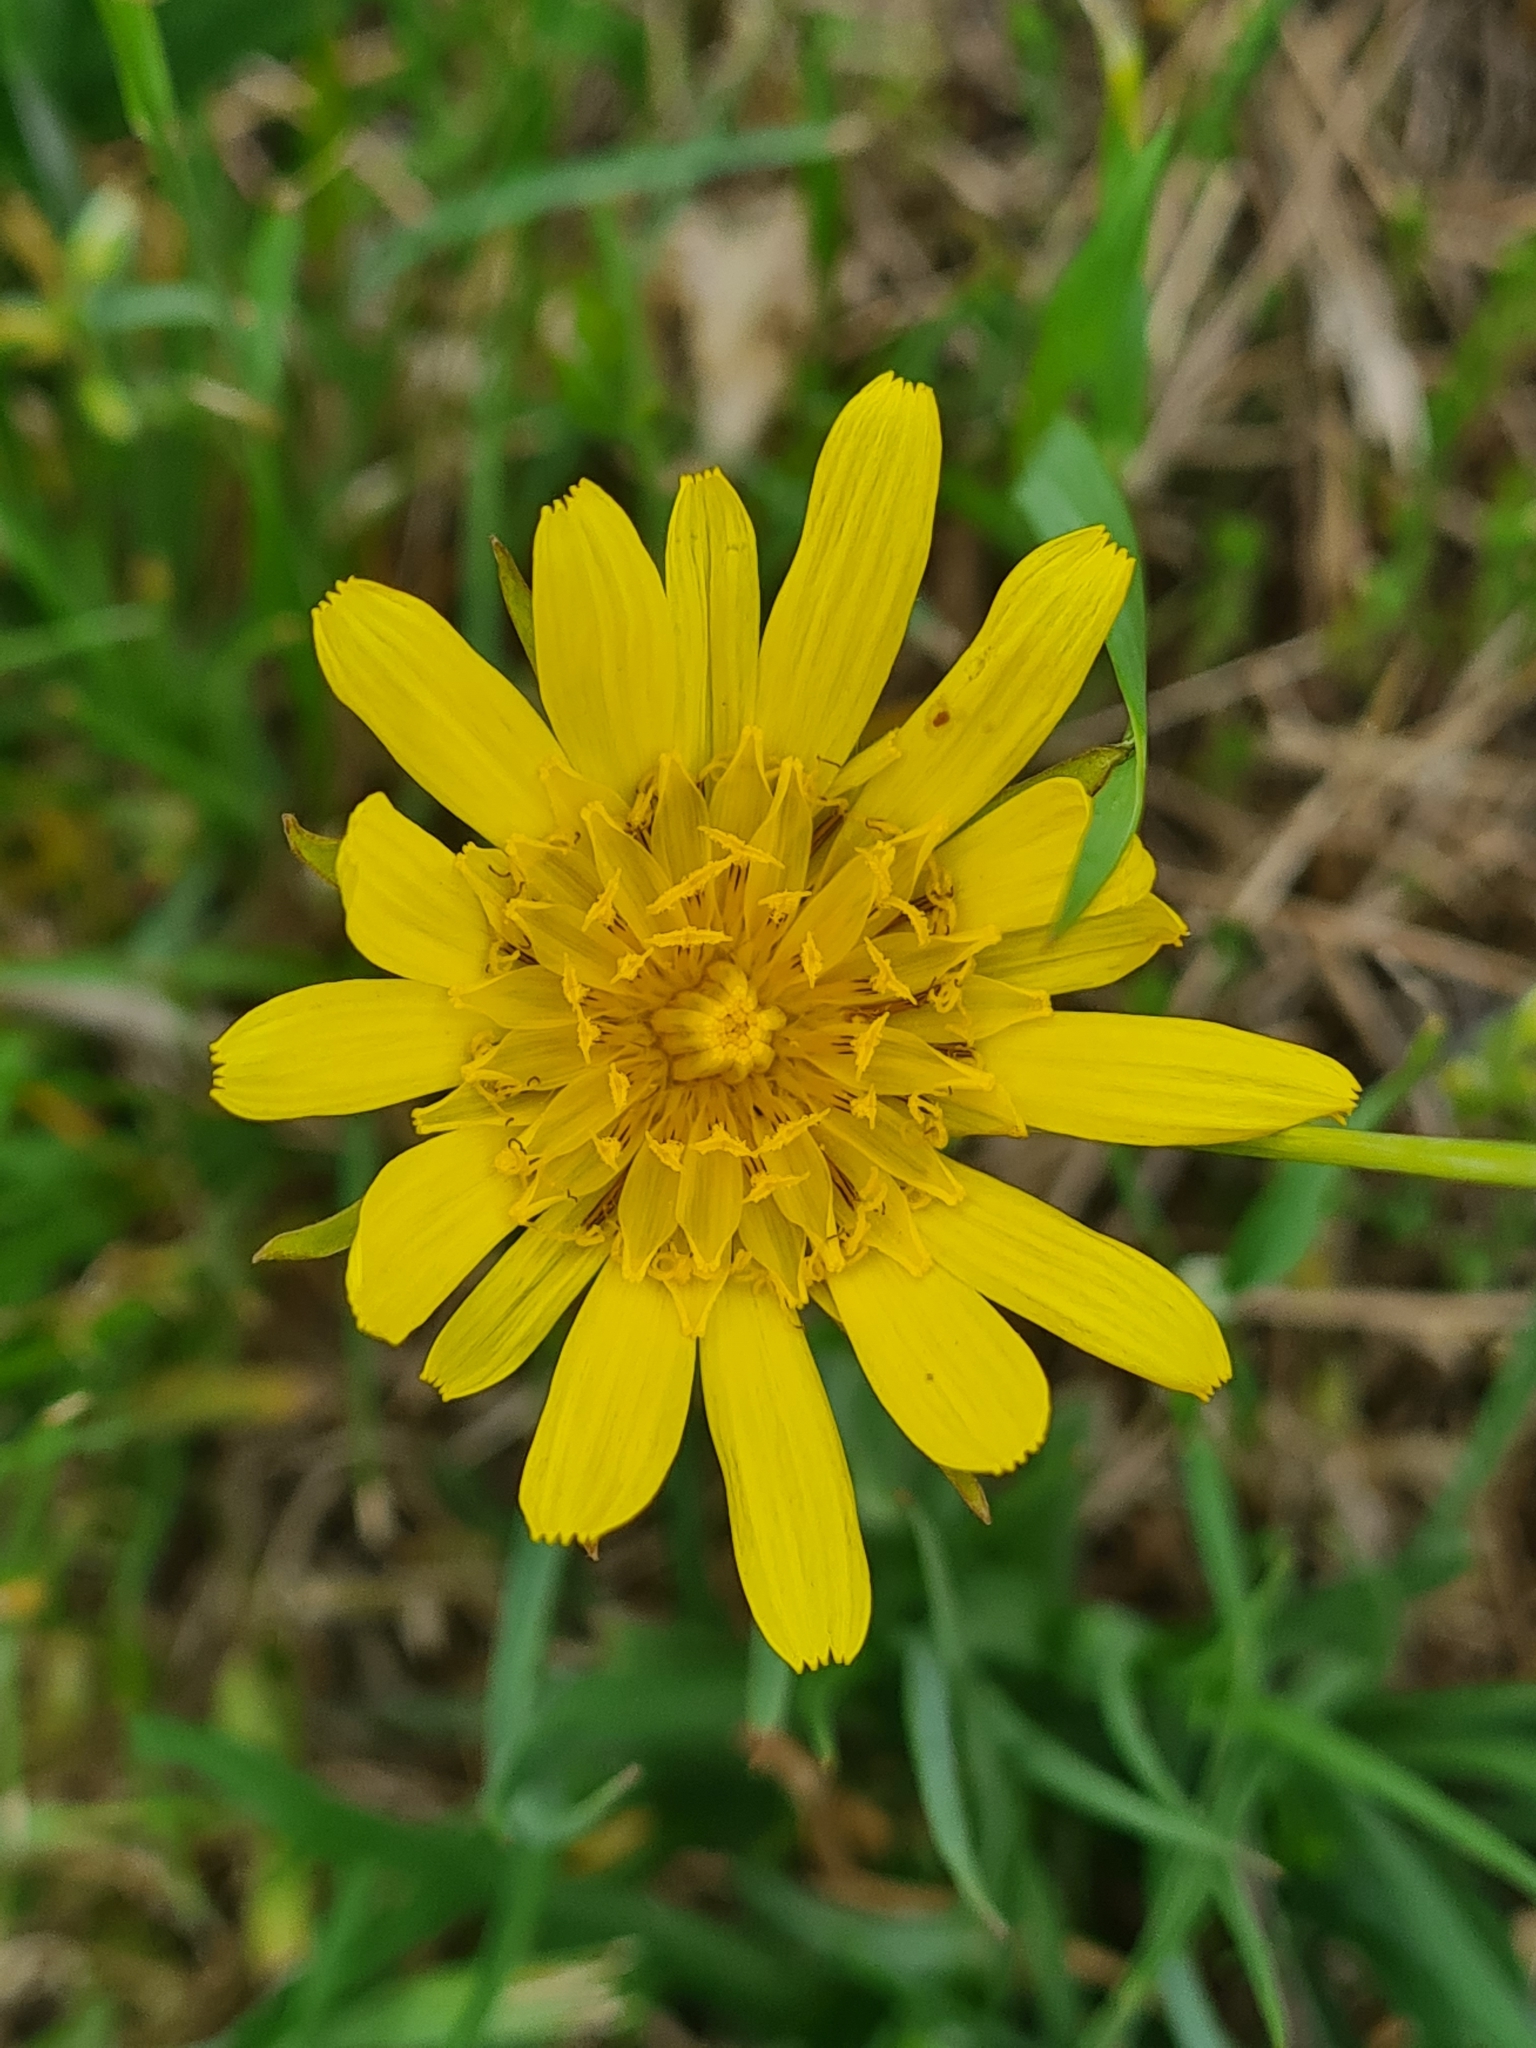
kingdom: Plantae
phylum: Tracheophyta
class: Magnoliopsida
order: Asterales
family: Asteraceae
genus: Tragopogon
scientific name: Tragopogon orientalis
